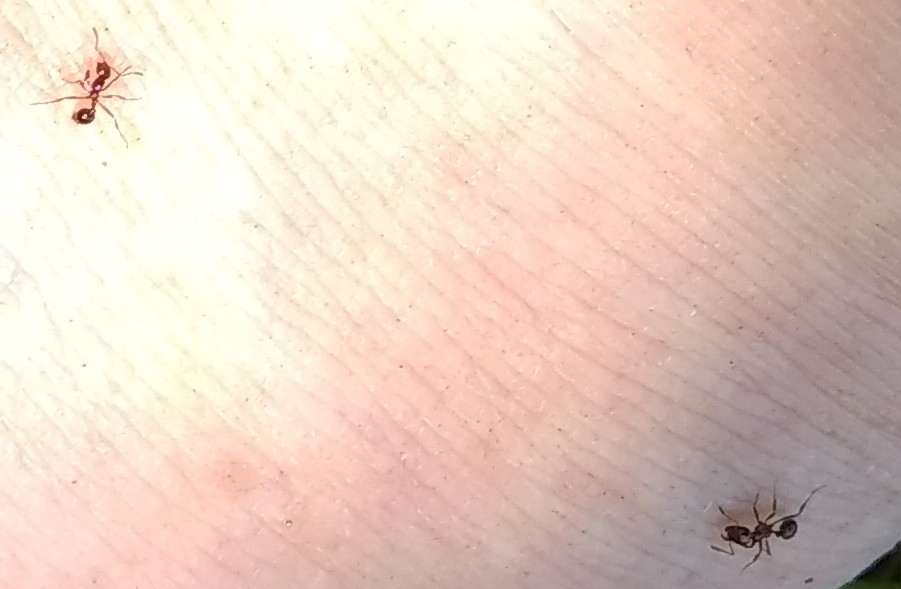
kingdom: Animalia
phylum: Arthropoda
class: Insecta
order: Hymenoptera
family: Formicidae
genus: Solenopsis
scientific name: Solenopsis invicta
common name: Red imported fire ant
